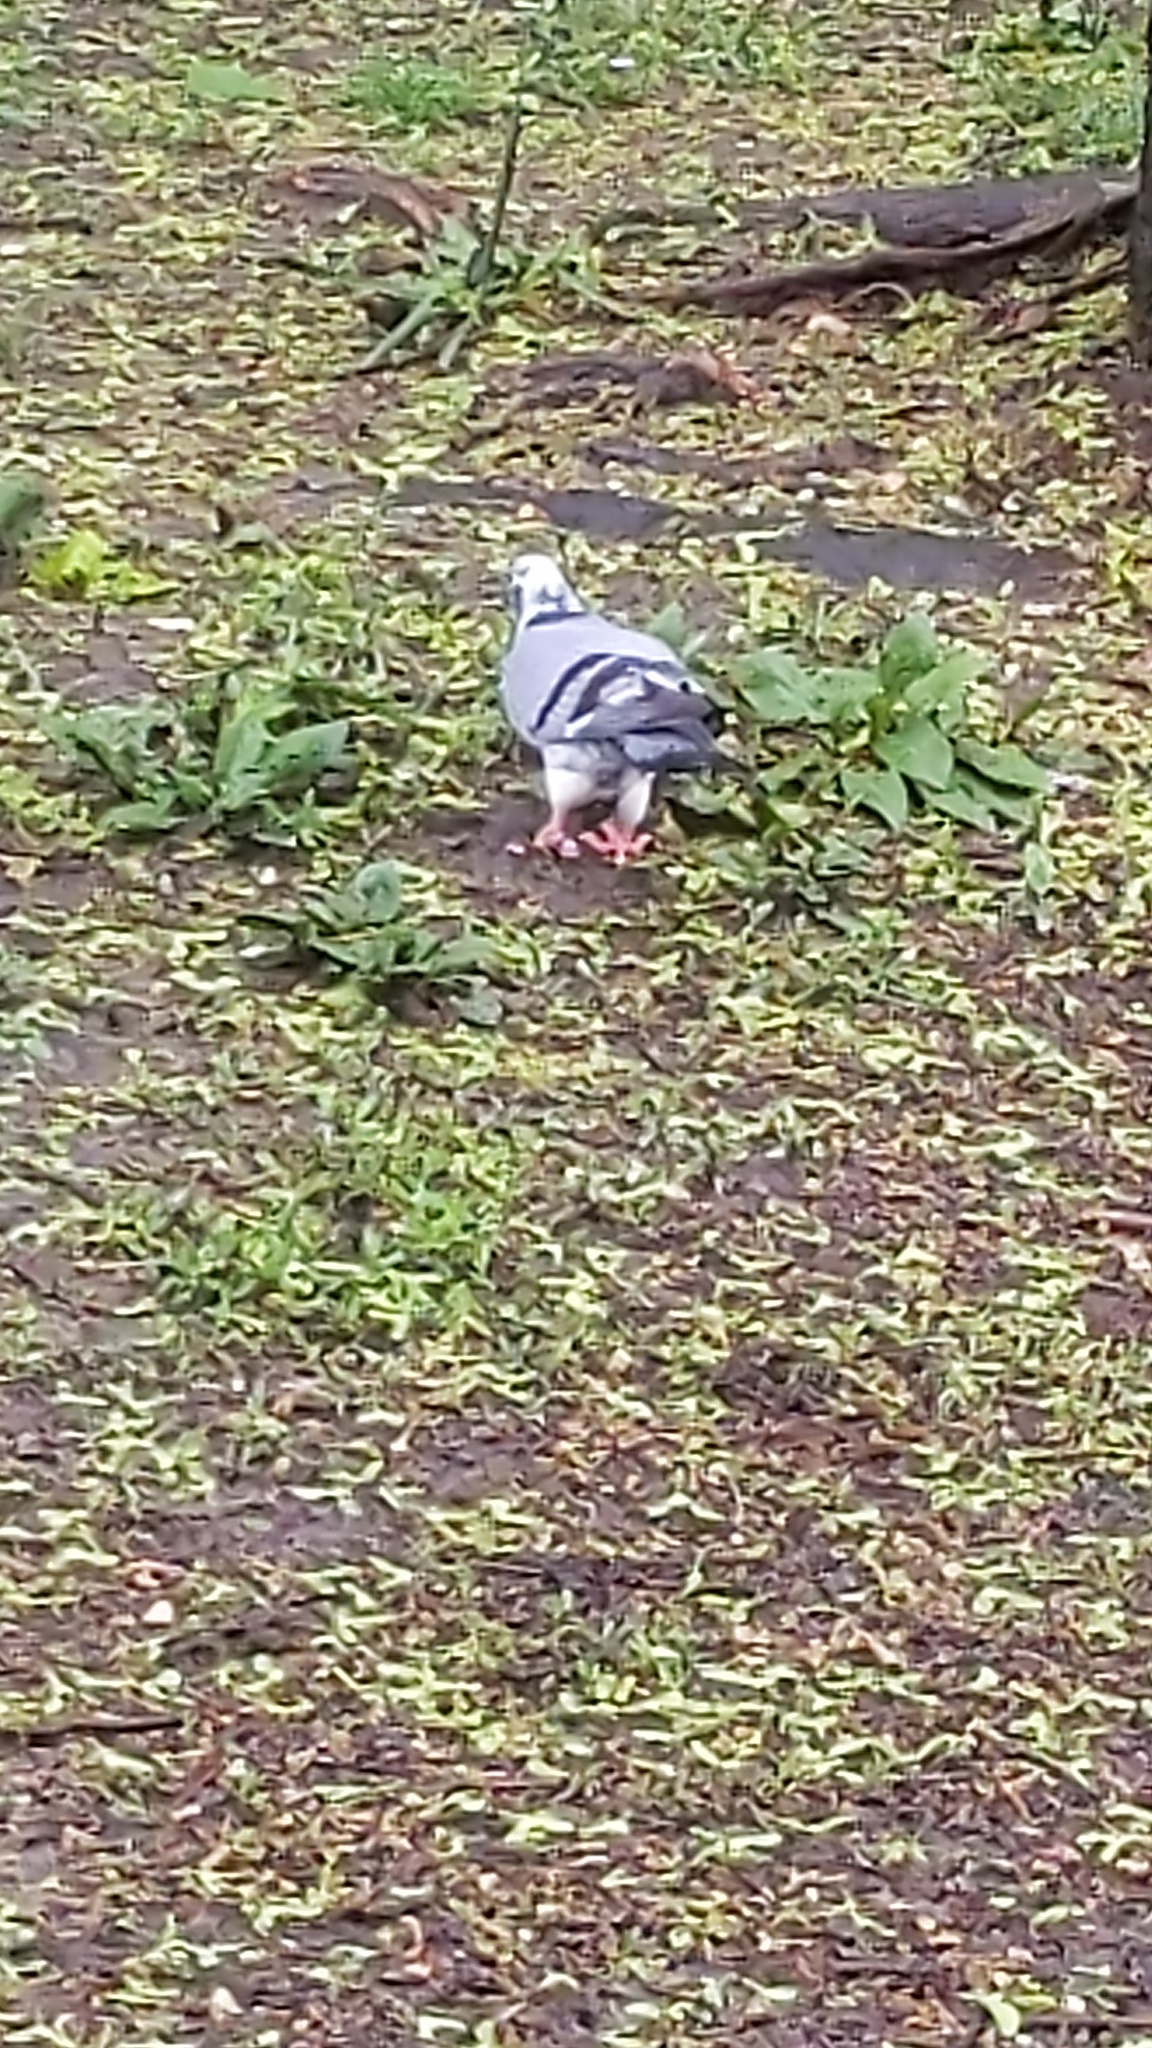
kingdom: Animalia
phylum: Chordata
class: Aves
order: Columbiformes
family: Columbidae
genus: Columba
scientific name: Columba livia
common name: Rock pigeon
